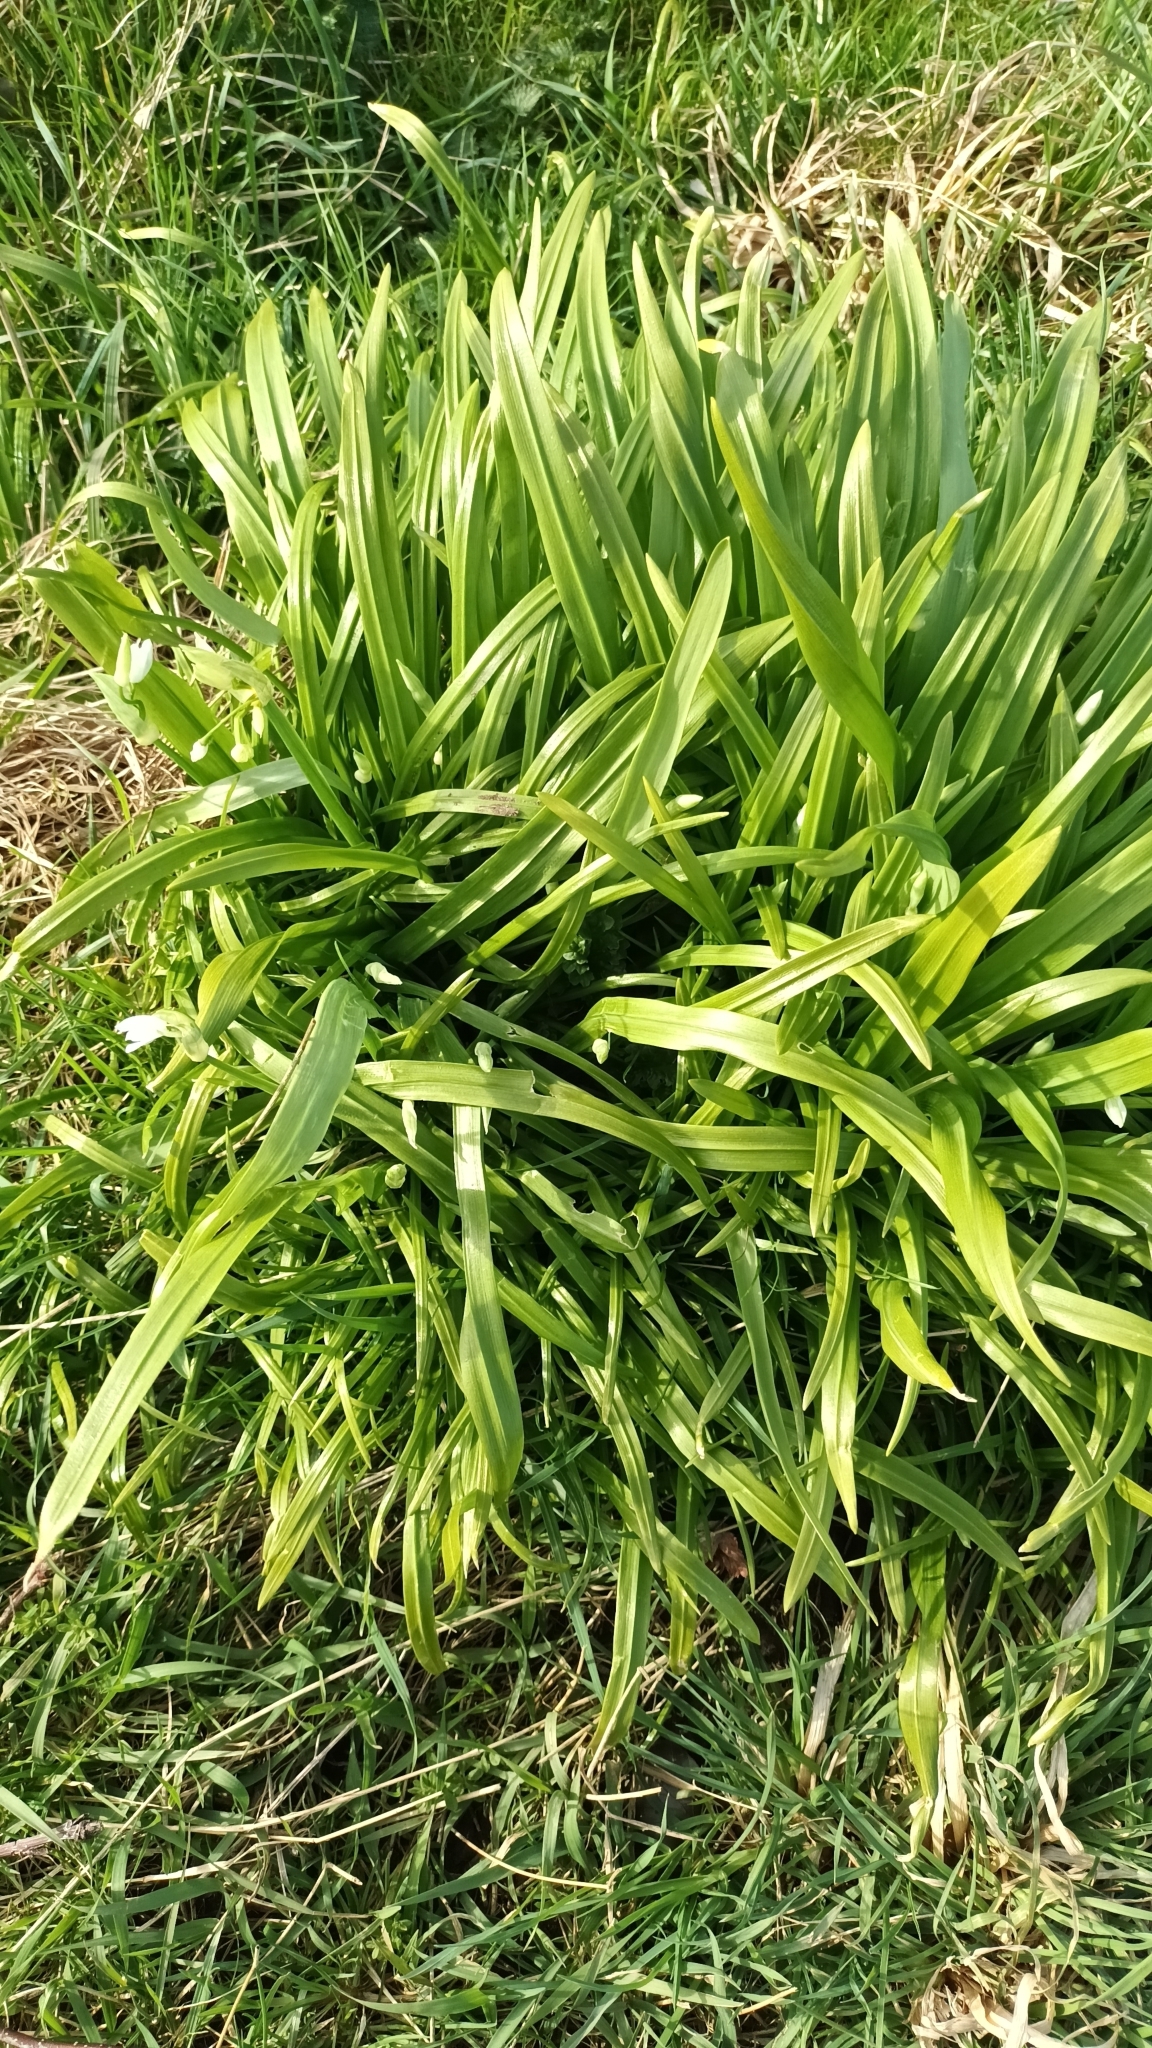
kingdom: Plantae
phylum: Tracheophyta
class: Liliopsida
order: Asparagales
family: Amaryllidaceae
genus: Allium
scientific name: Allium paradoxum
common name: Few-flowered garlic
